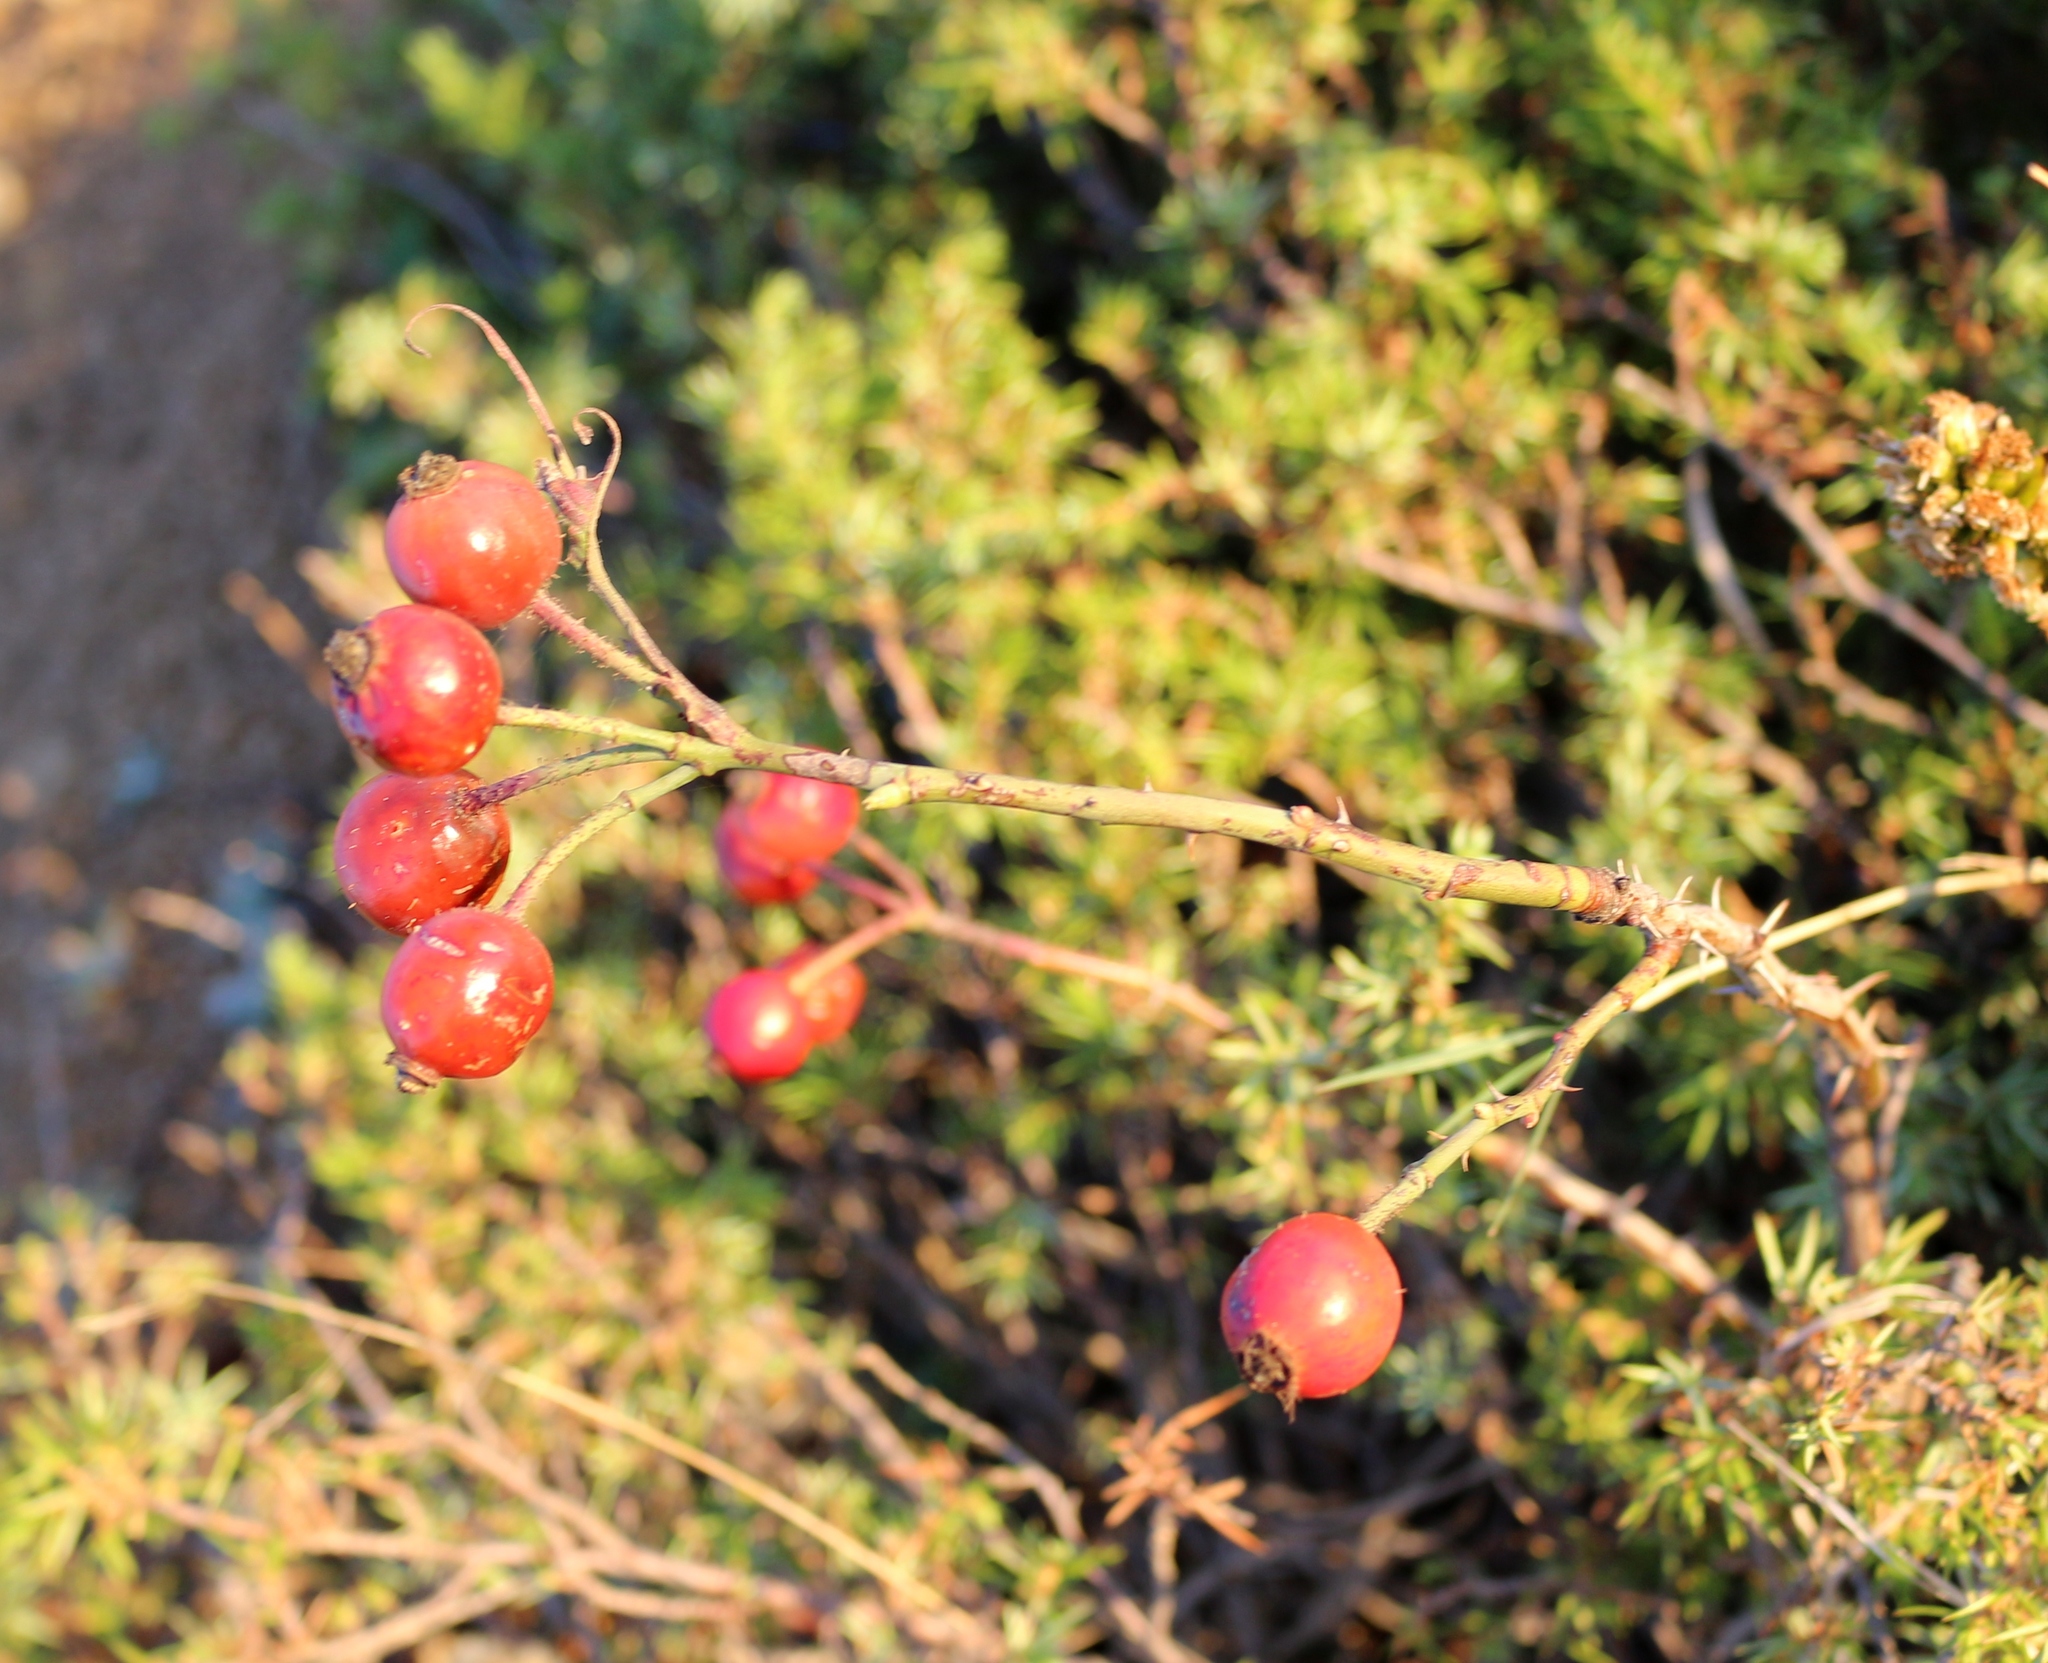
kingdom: Plantae
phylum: Tracheophyta
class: Magnoliopsida
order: Rosales
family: Rosaceae
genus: Rosa
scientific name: Rosa
